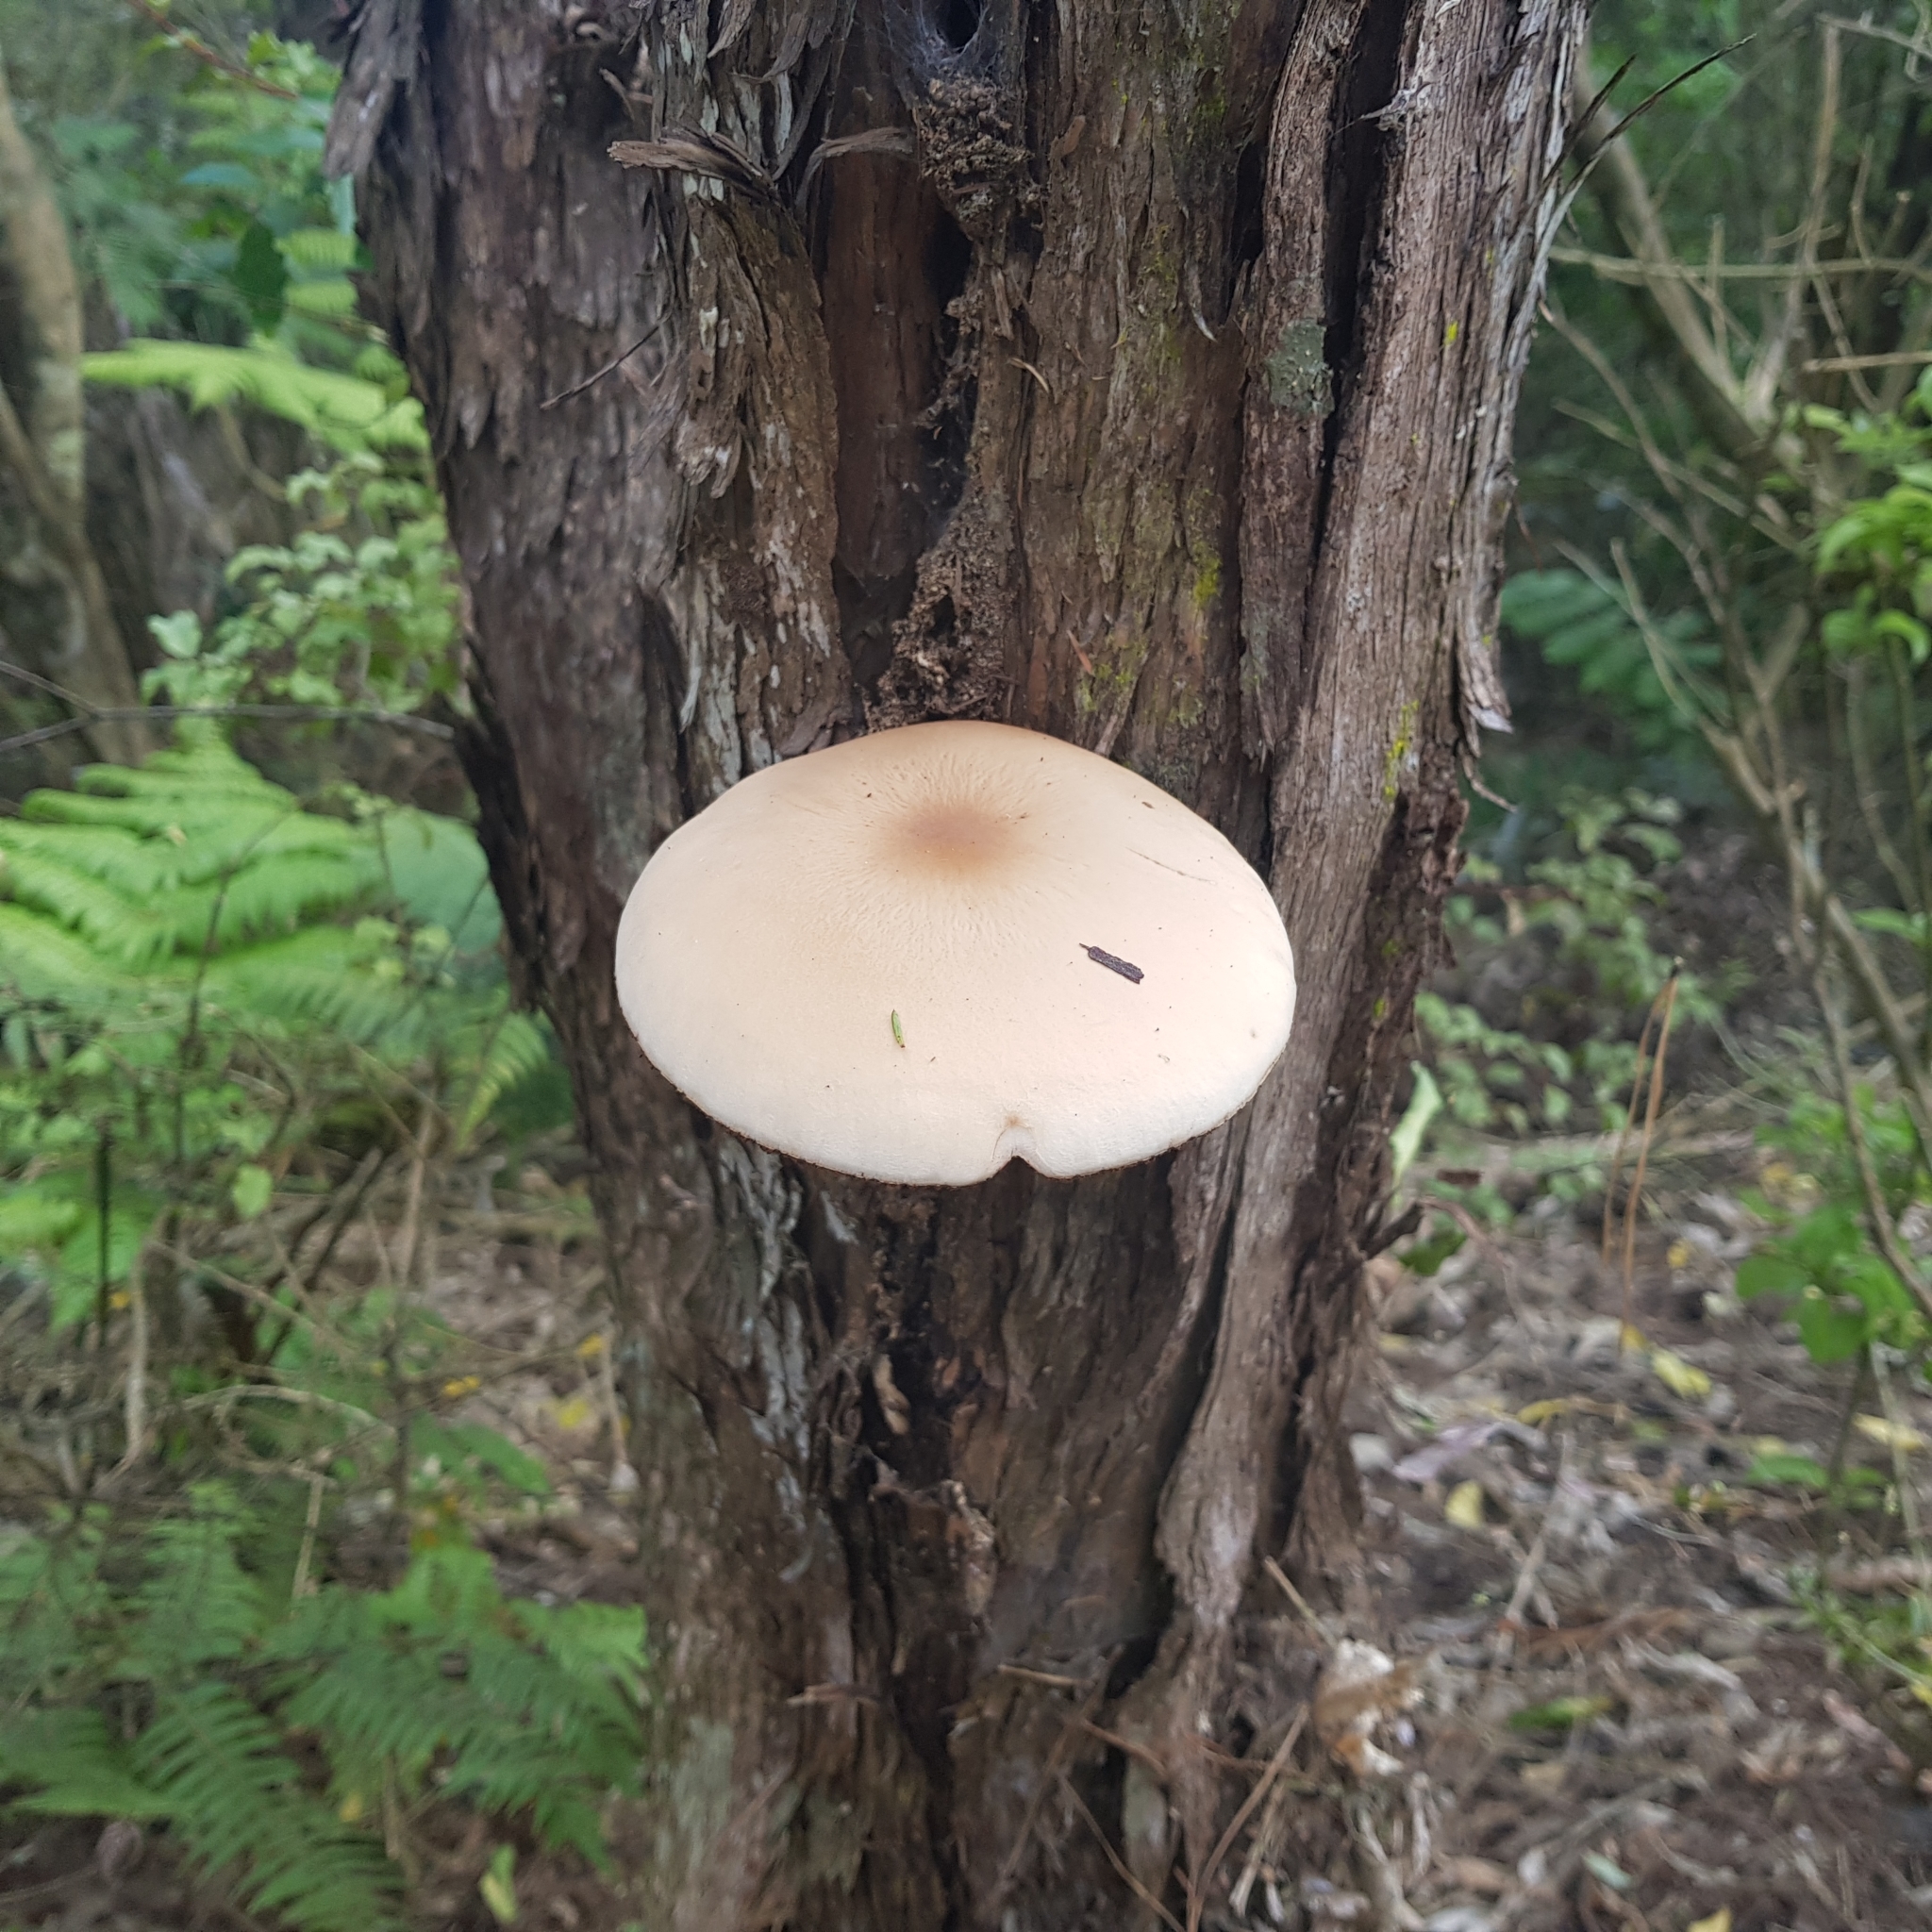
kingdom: Fungi
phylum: Basidiomycota
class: Agaricomycetes
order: Agaricales
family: Tubariaceae
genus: Cyclocybe
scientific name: Cyclocybe parasitica
